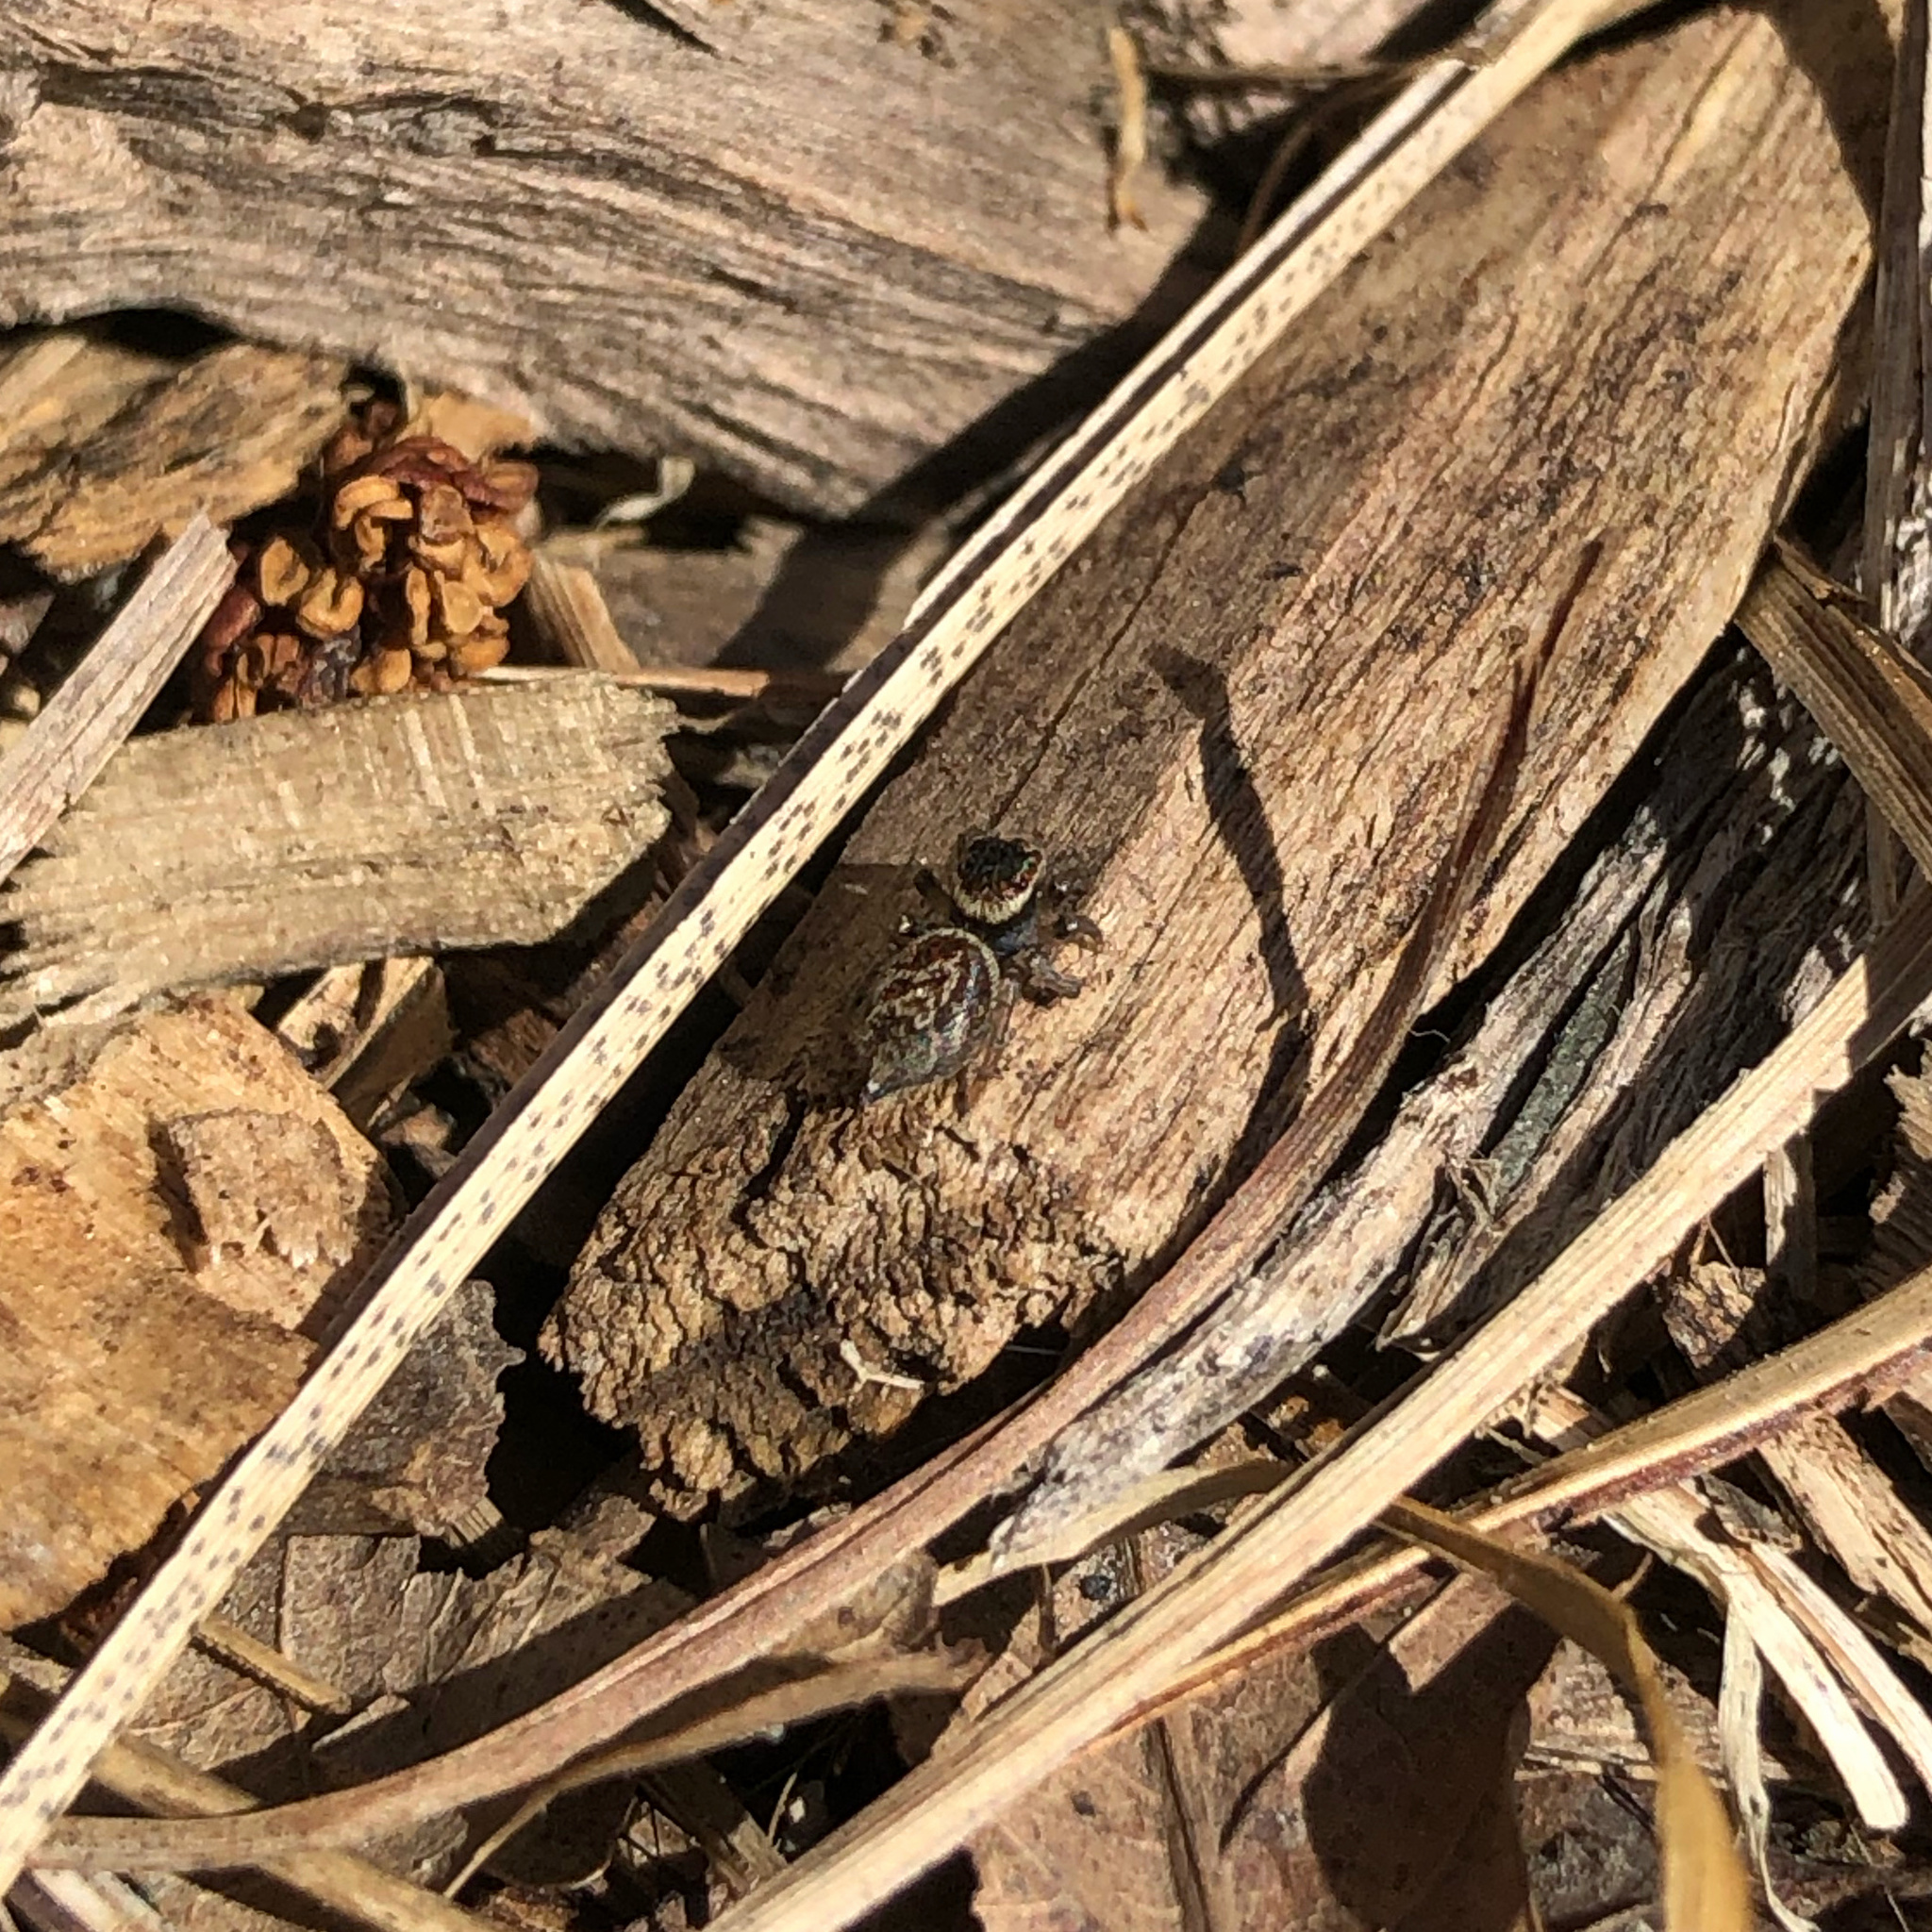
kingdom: Animalia
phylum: Arthropoda
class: Arachnida
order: Araneae
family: Salticidae
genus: Maratus
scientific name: Maratus griseus
